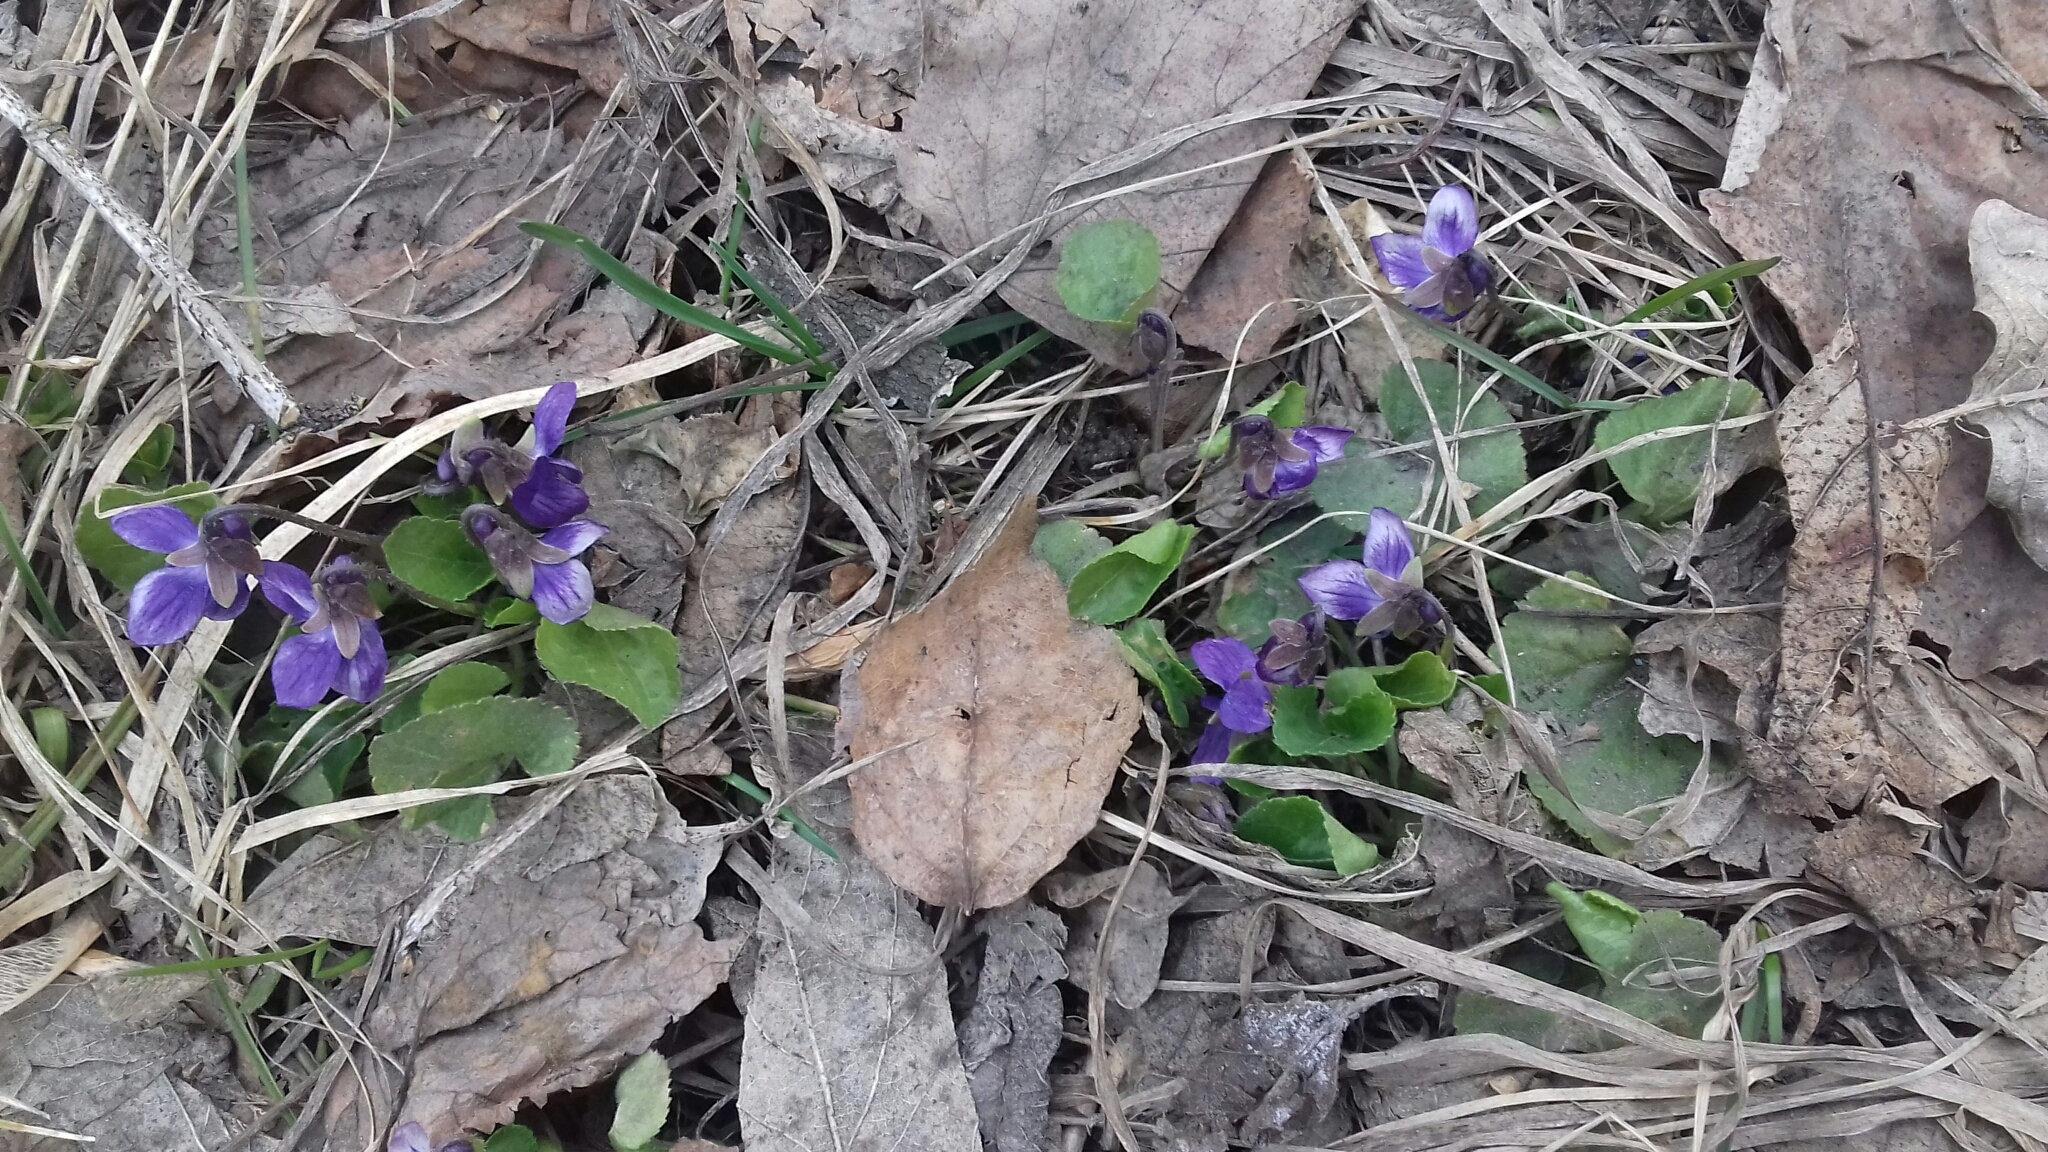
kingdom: Plantae
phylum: Tracheophyta
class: Magnoliopsida
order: Malpighiales
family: Violaceae
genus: Viola
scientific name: Viola odorata
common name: Sweet violet
